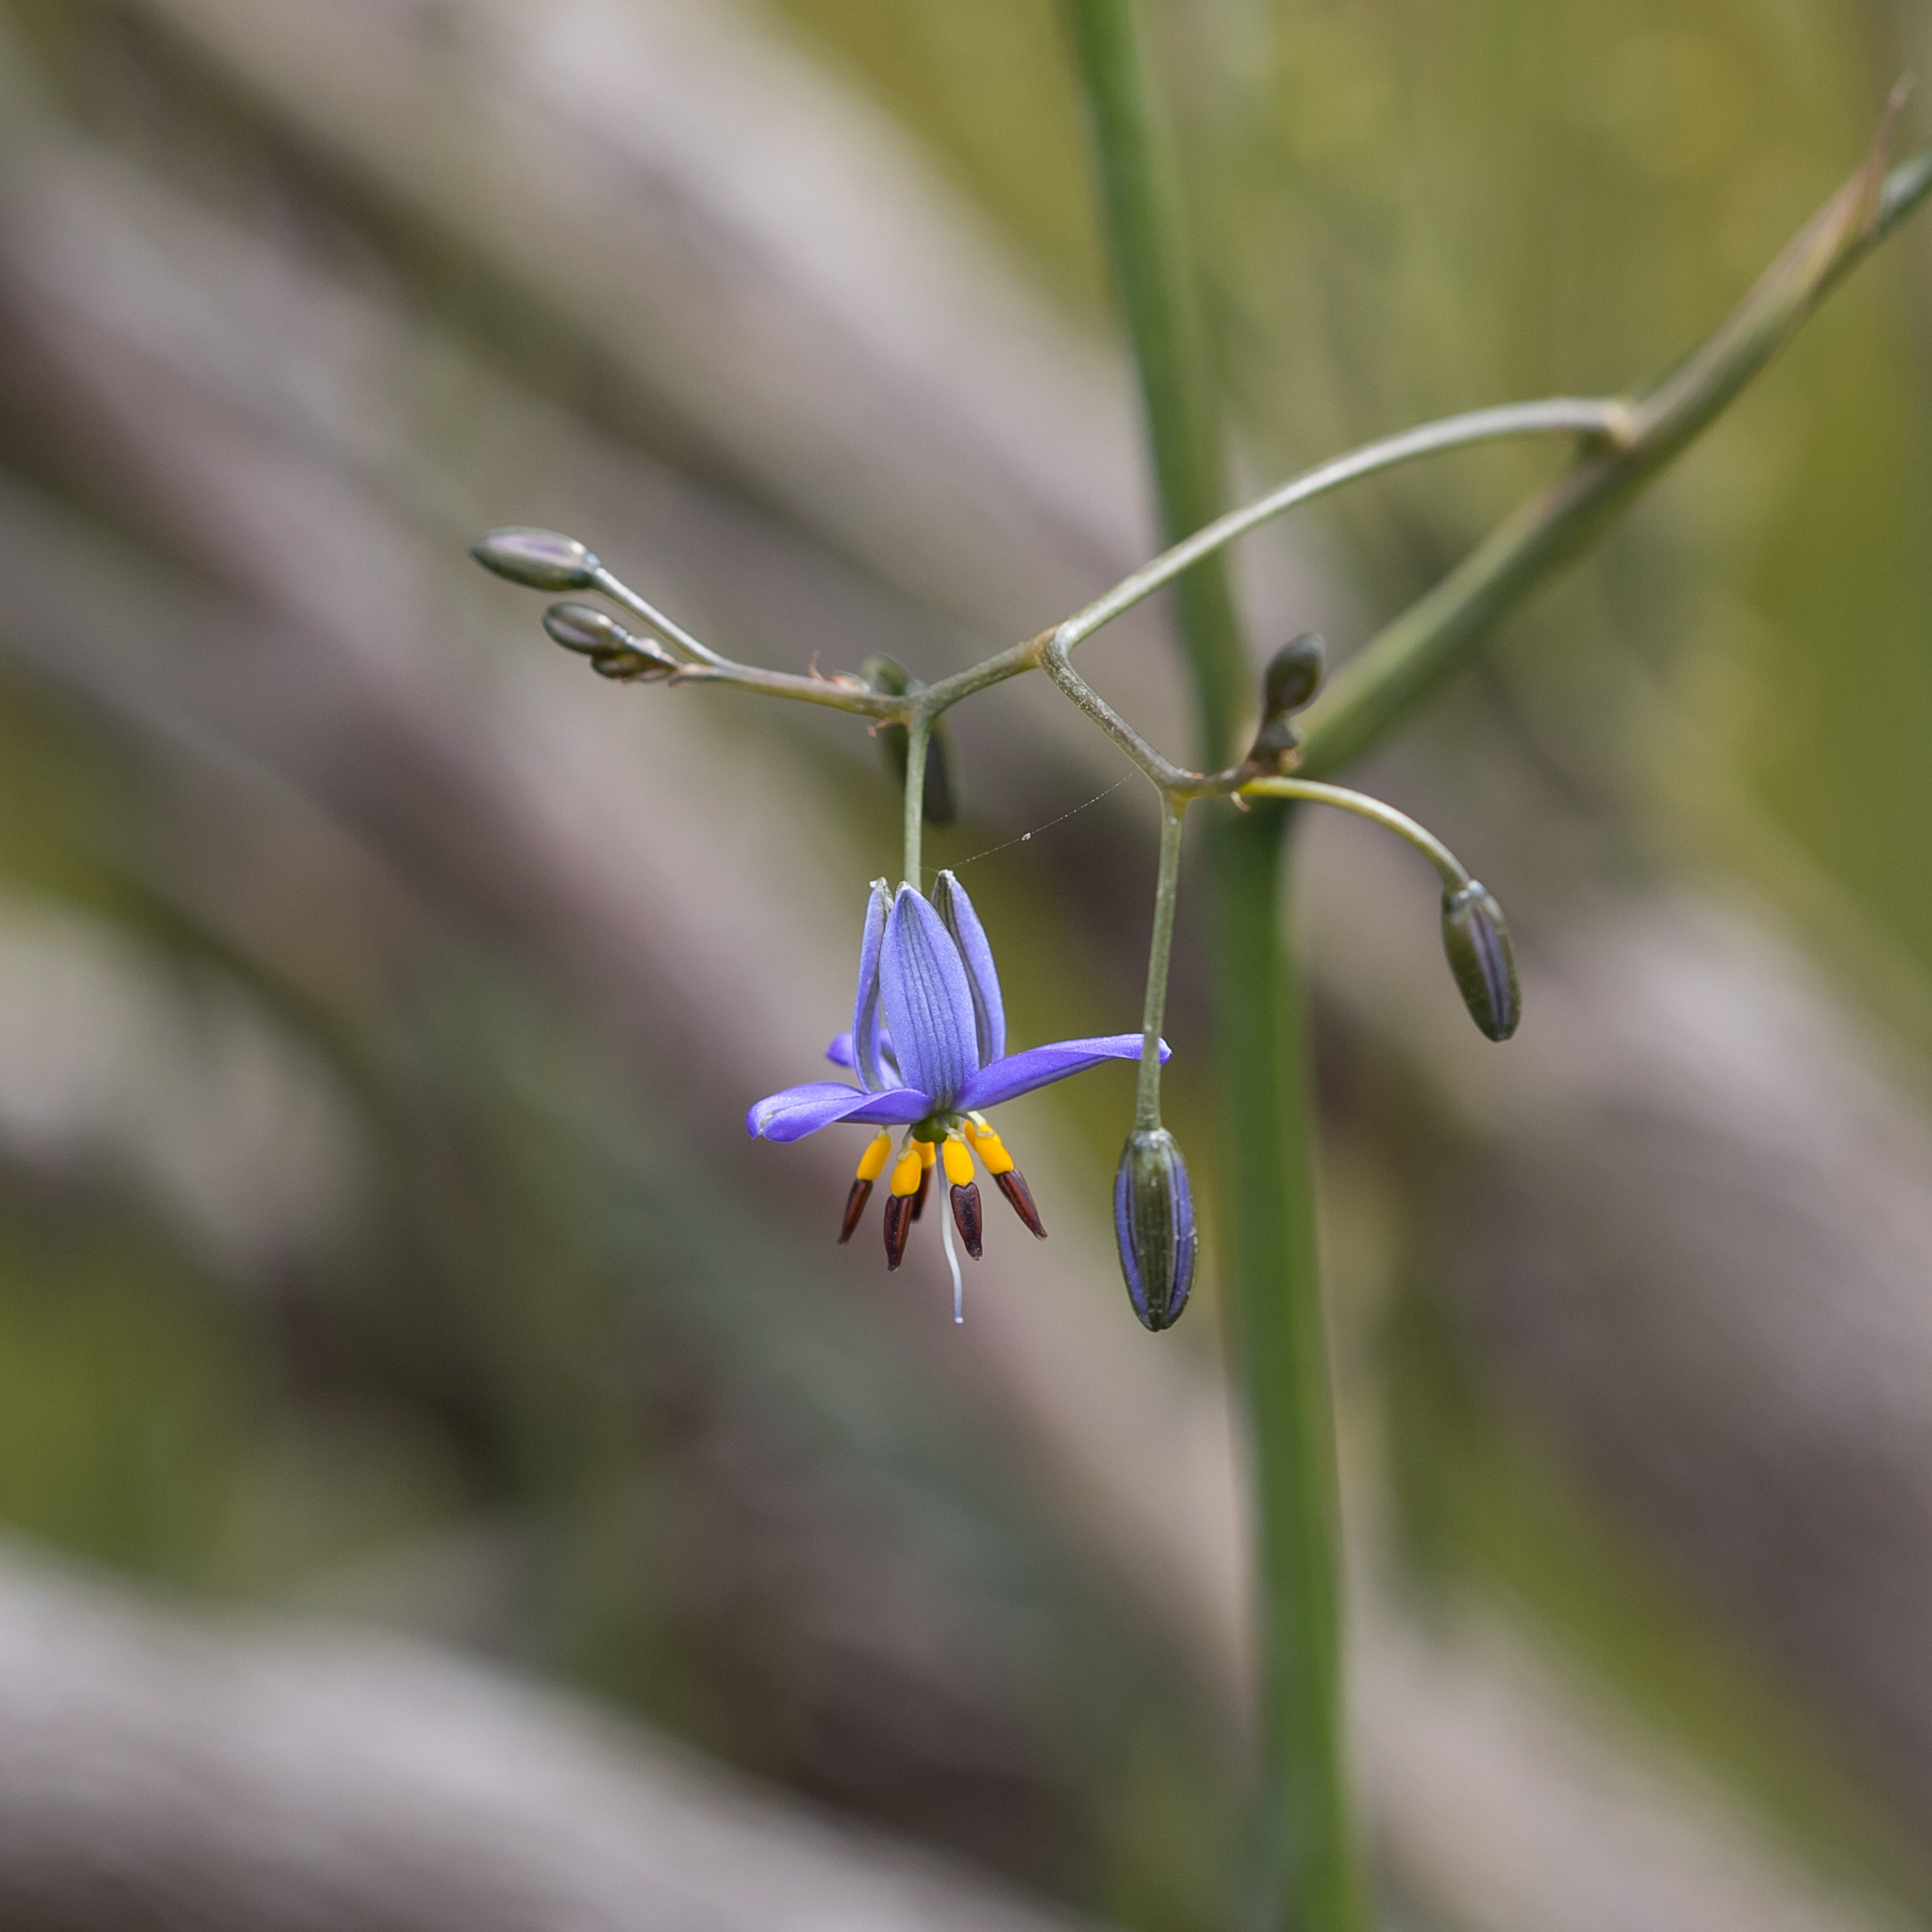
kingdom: Plantae
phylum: Tracheophyta
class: Liliopsida
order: Asparagales
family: Asphodelaceae
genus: Dianella
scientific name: Dianella revoluta
